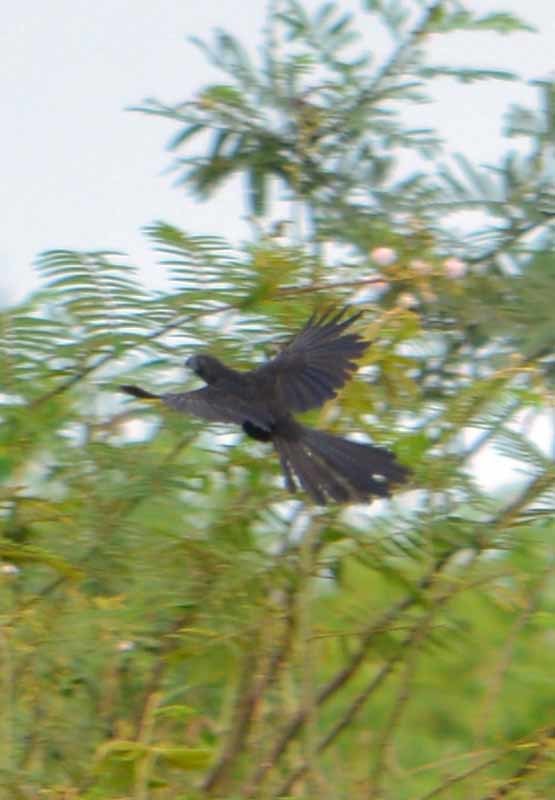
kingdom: Animalia
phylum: Chordata
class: Aves
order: Cuculiformes
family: Cuculidae
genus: Crotophaga
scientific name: Crotophaga sulcirostris
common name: Groove-billed ani
